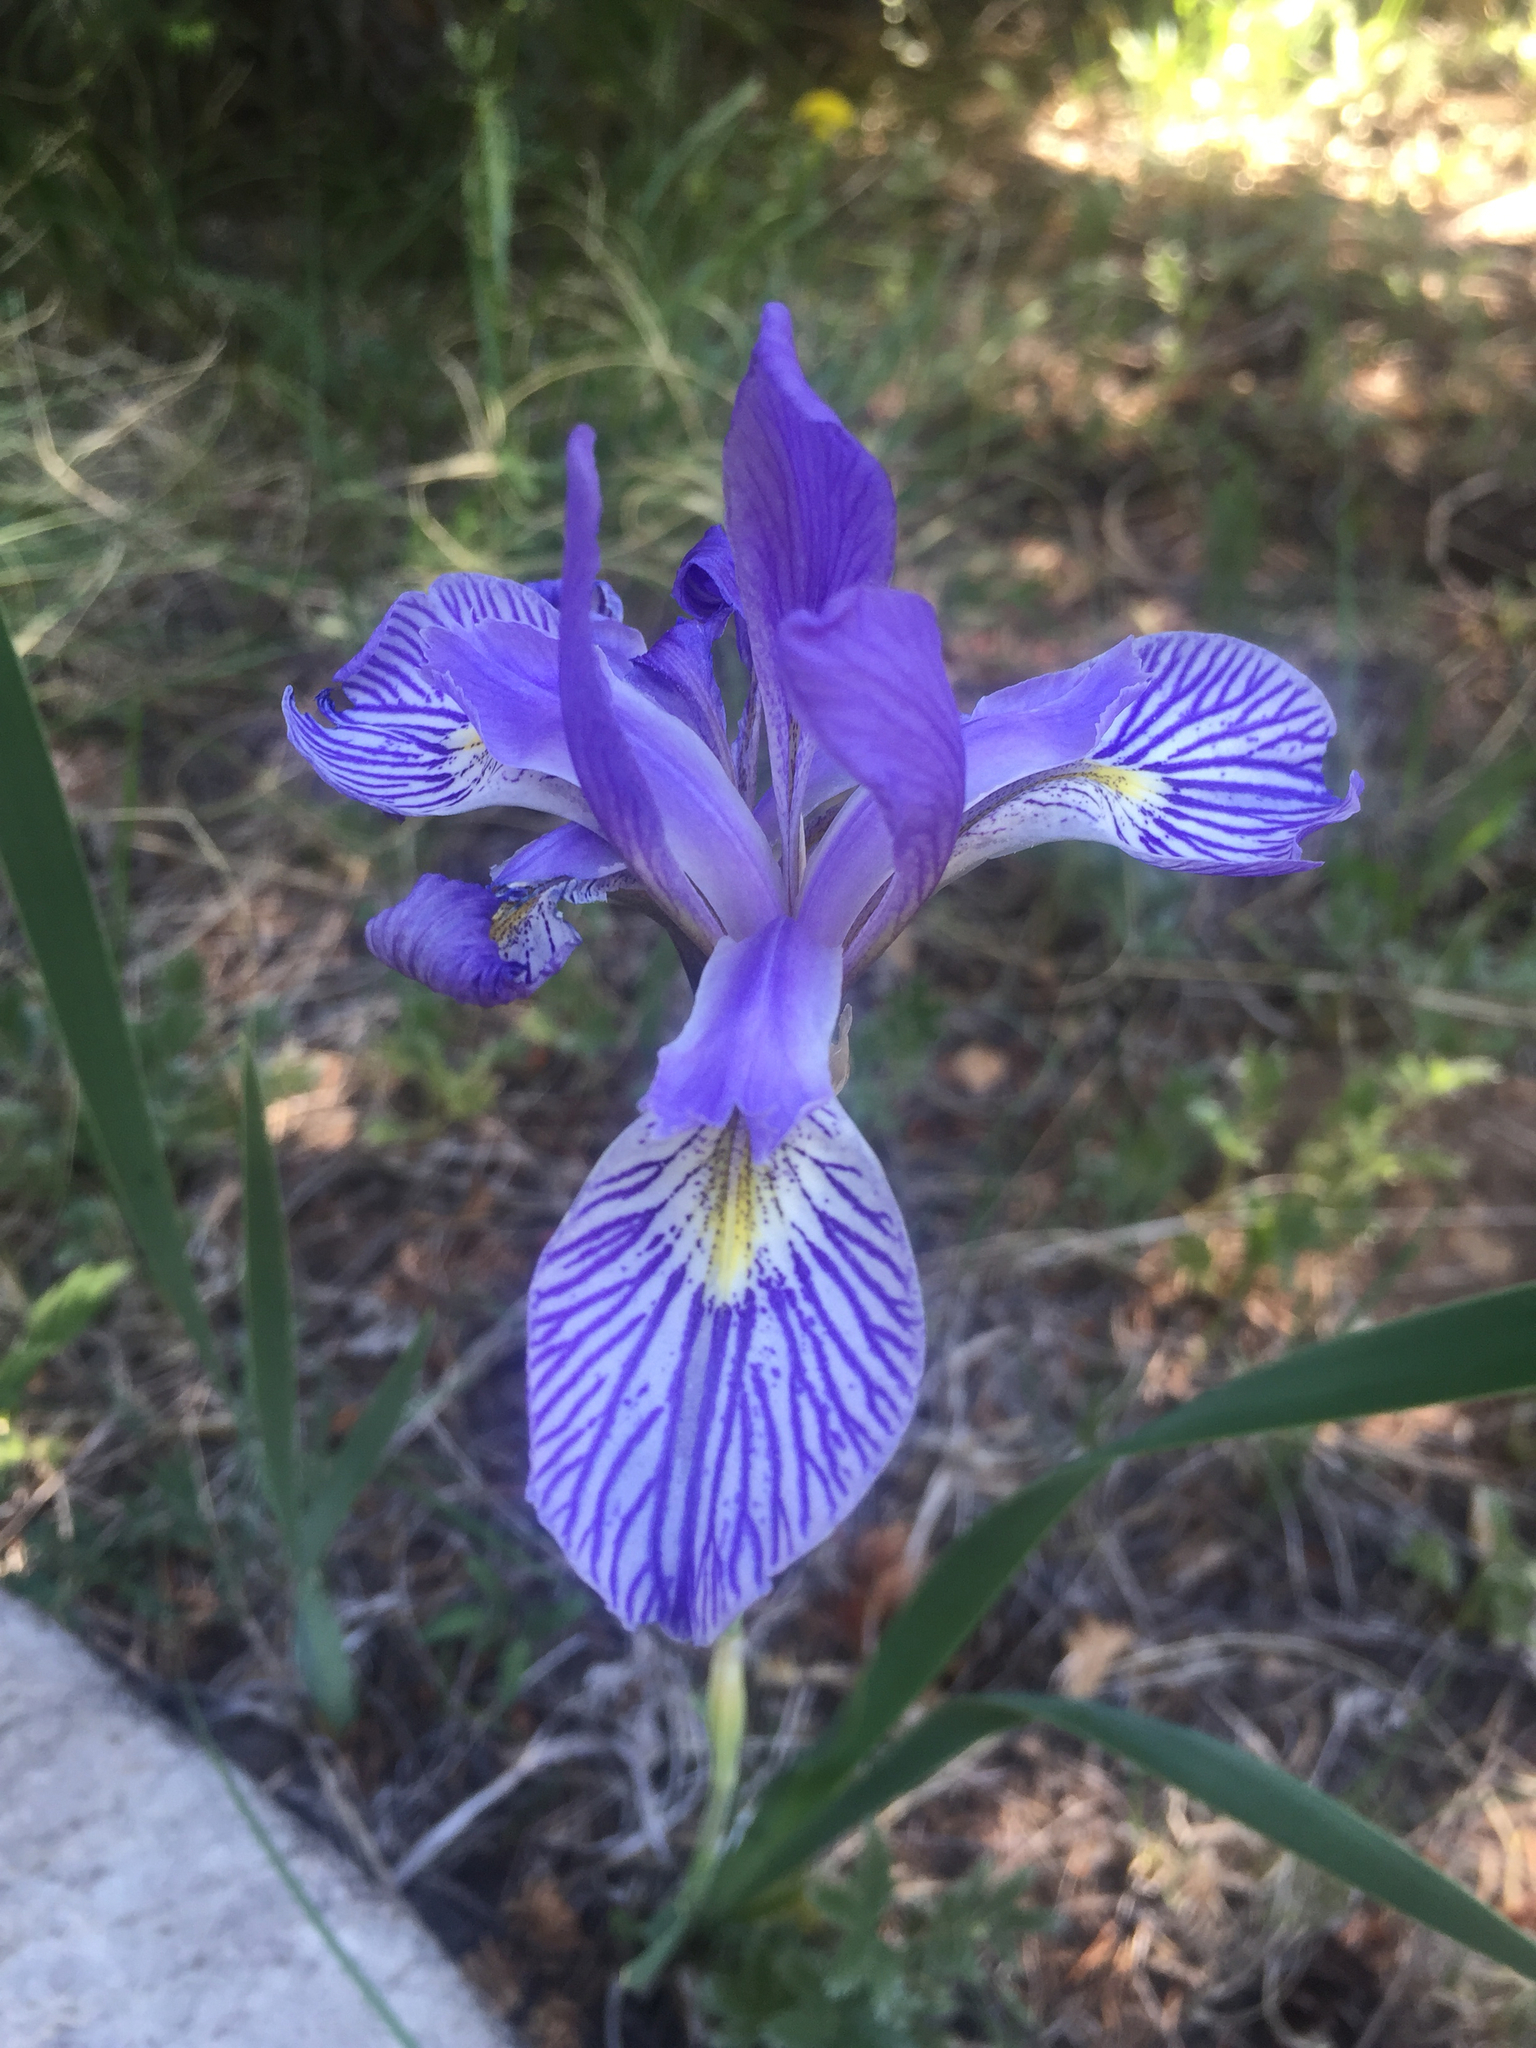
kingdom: Plantae
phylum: Tracheophyta
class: Liliopsida
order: Asparagales
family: Iridaceae
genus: Iris
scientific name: Iris missouriensis
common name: Rocky mountain iris
